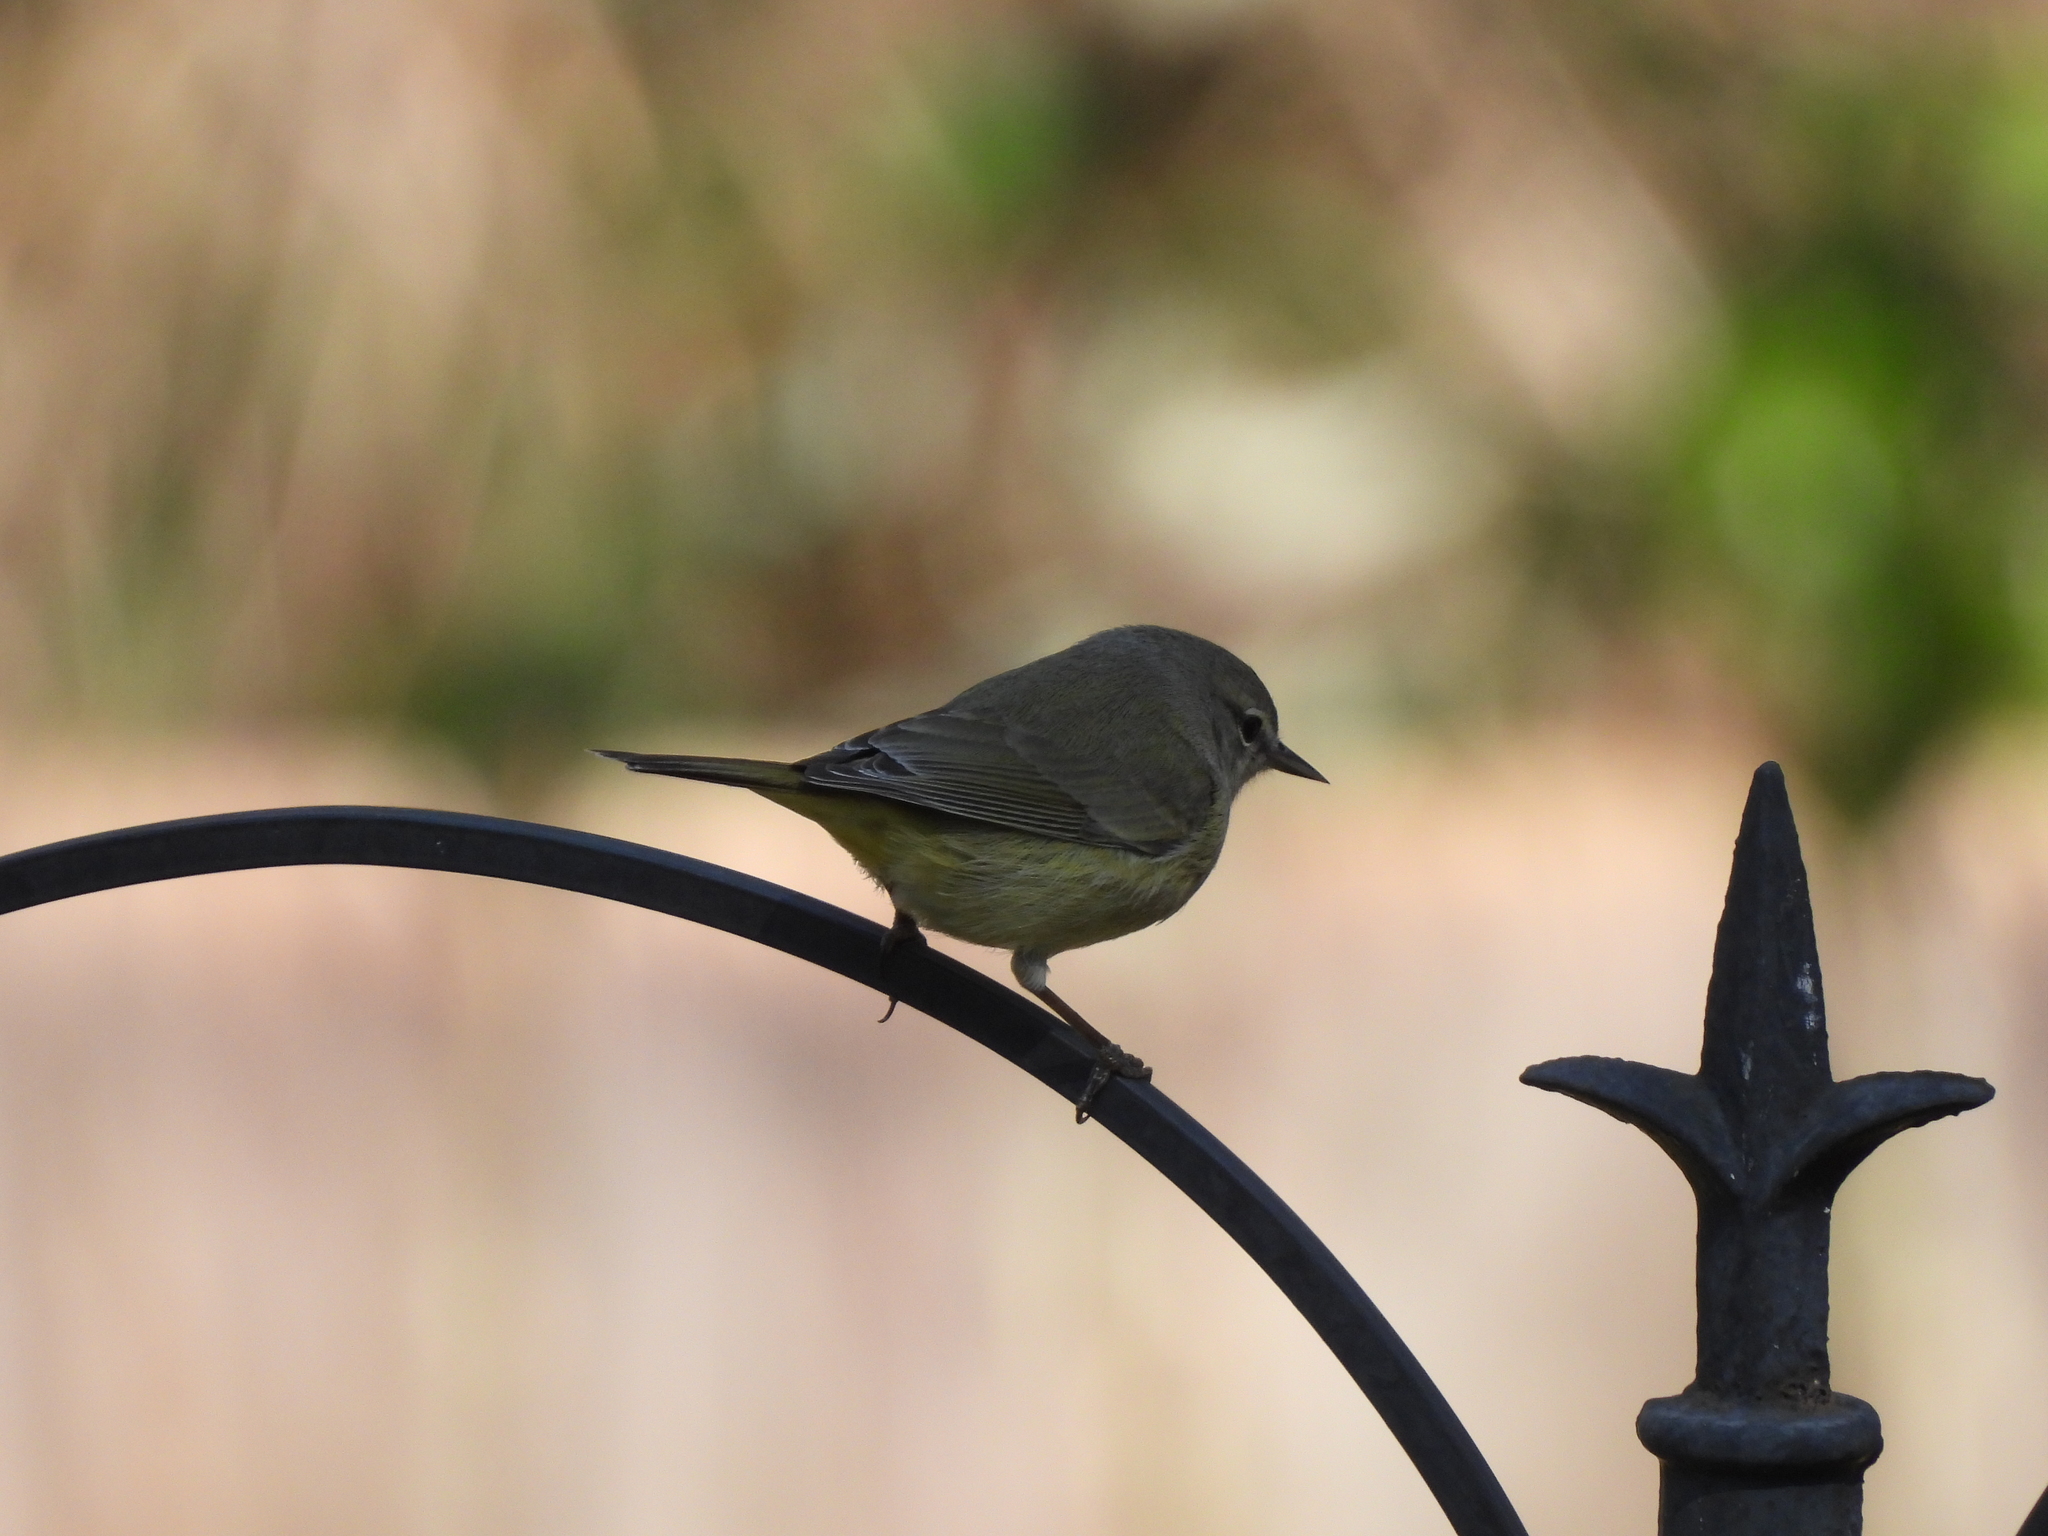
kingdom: Animalia
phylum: Chordata
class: Aves
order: Passeriformes
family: Parulidae
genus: Leiothlypis
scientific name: Leiothlypis celata
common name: Orange-crowned warbler
